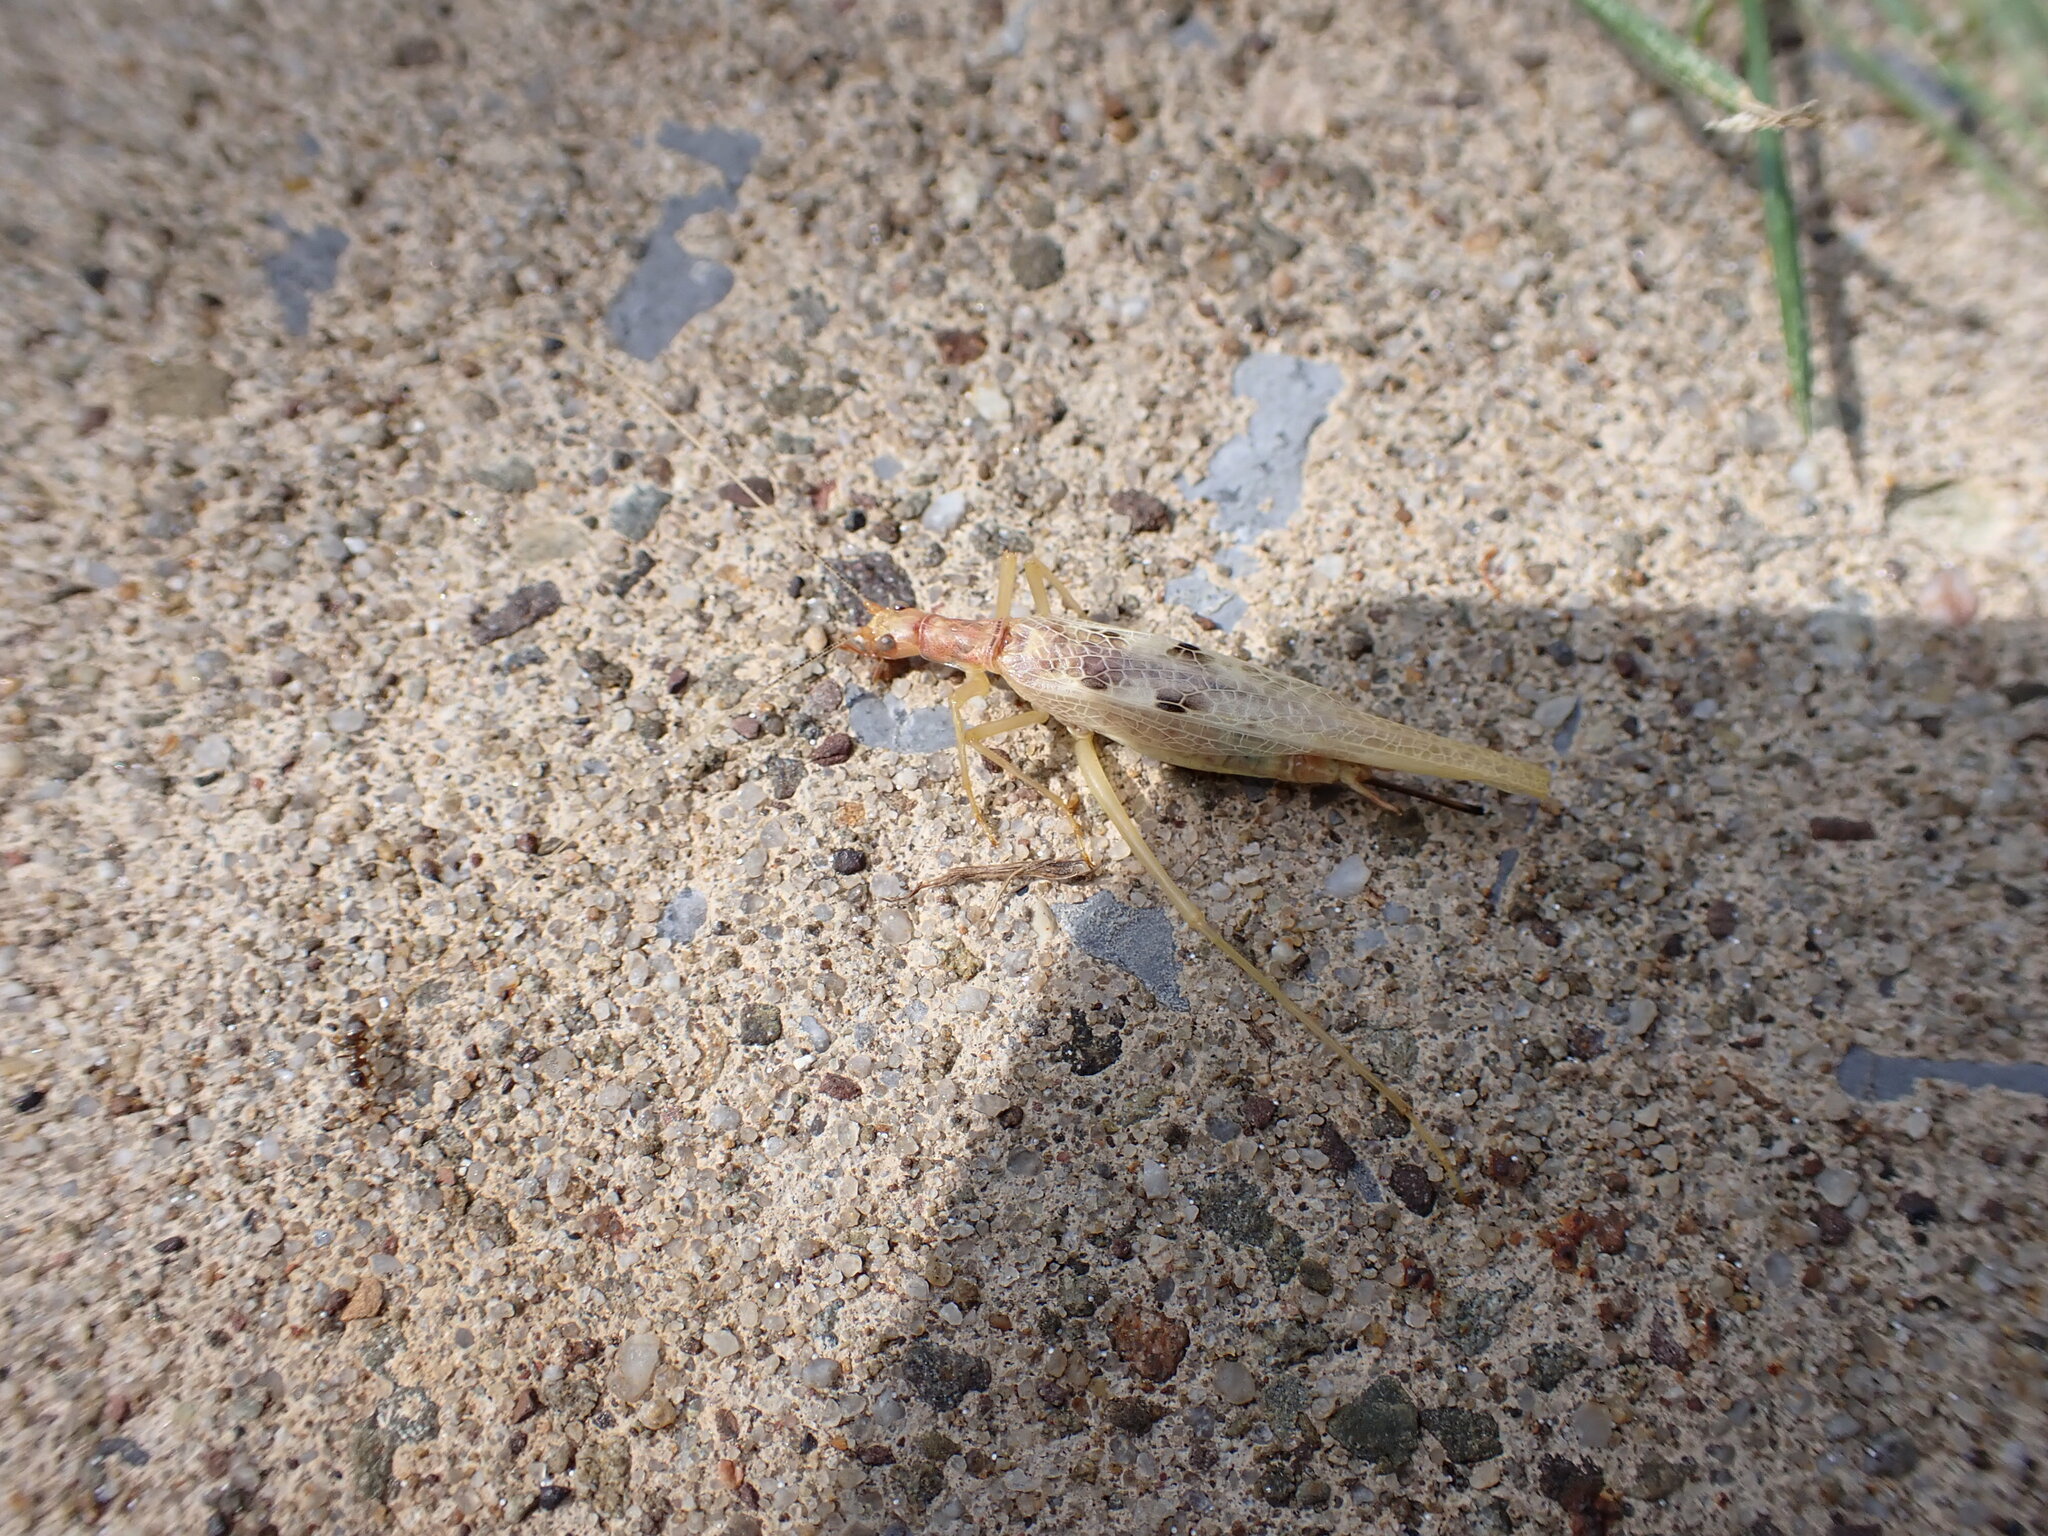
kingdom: Animalia
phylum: Arthropoda
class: Insecta
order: Orthoptera
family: Gryllidae
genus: Neoxabea
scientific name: Neoxabea bipunctata
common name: Two-spotted tree cricket
